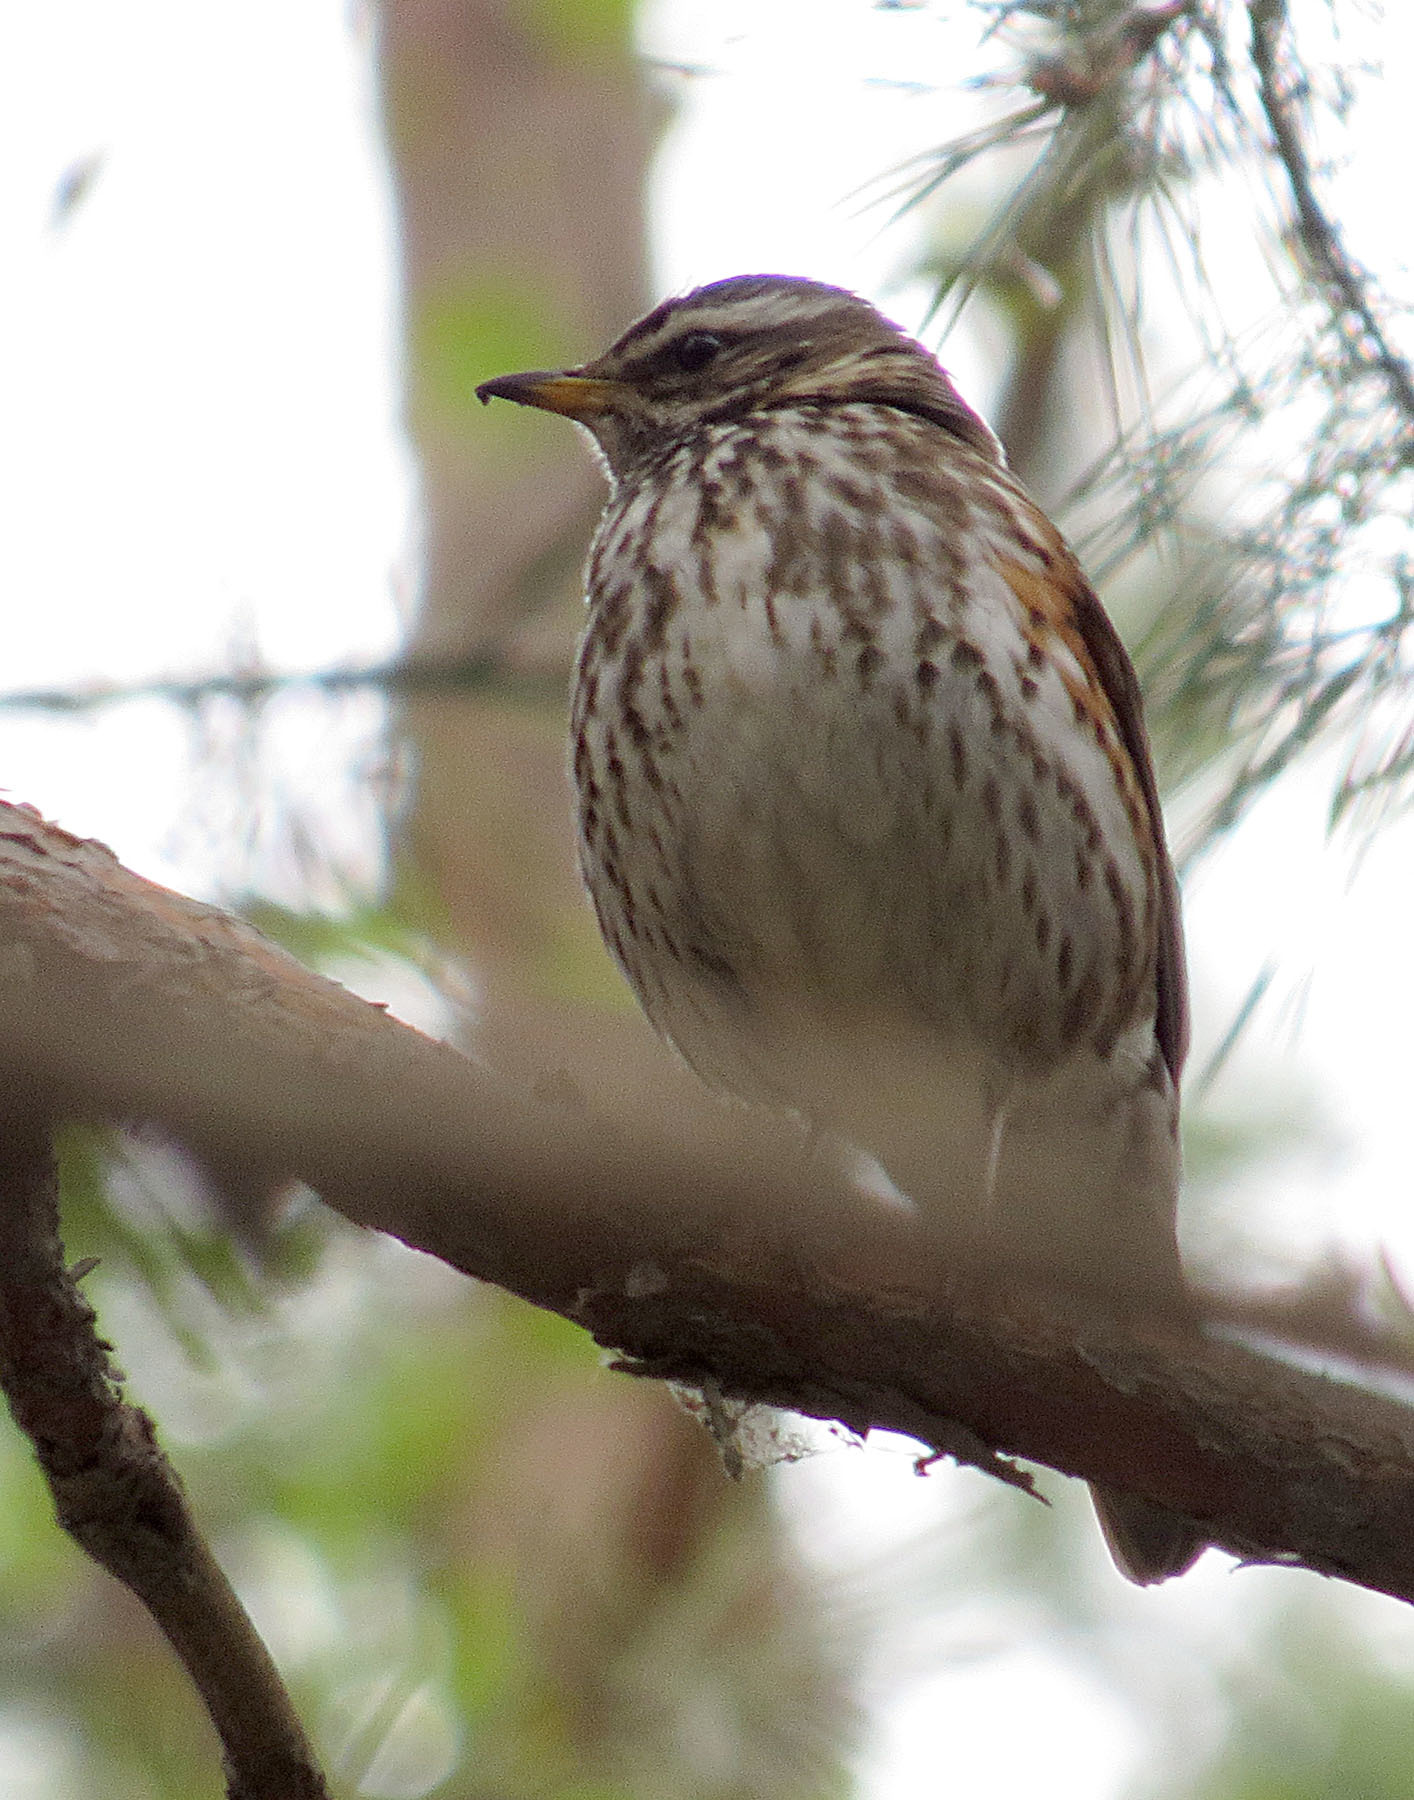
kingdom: Animalia
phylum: Chordata
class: Aves
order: Passeriformes
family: Turdidae
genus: Turdus
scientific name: Turdus iliacus
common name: Redwing
